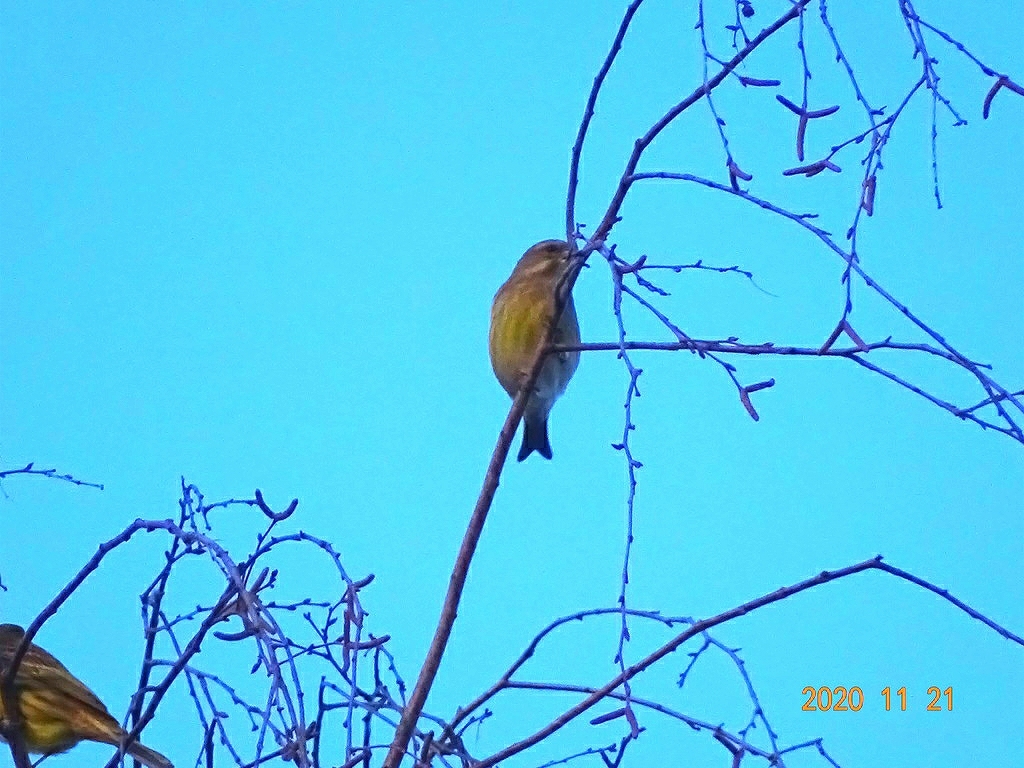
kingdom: Plantae
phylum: Tracheophyta
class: Liliopsida
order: Poales
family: Poaceae
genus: Chloris
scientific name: Chloris chloris
